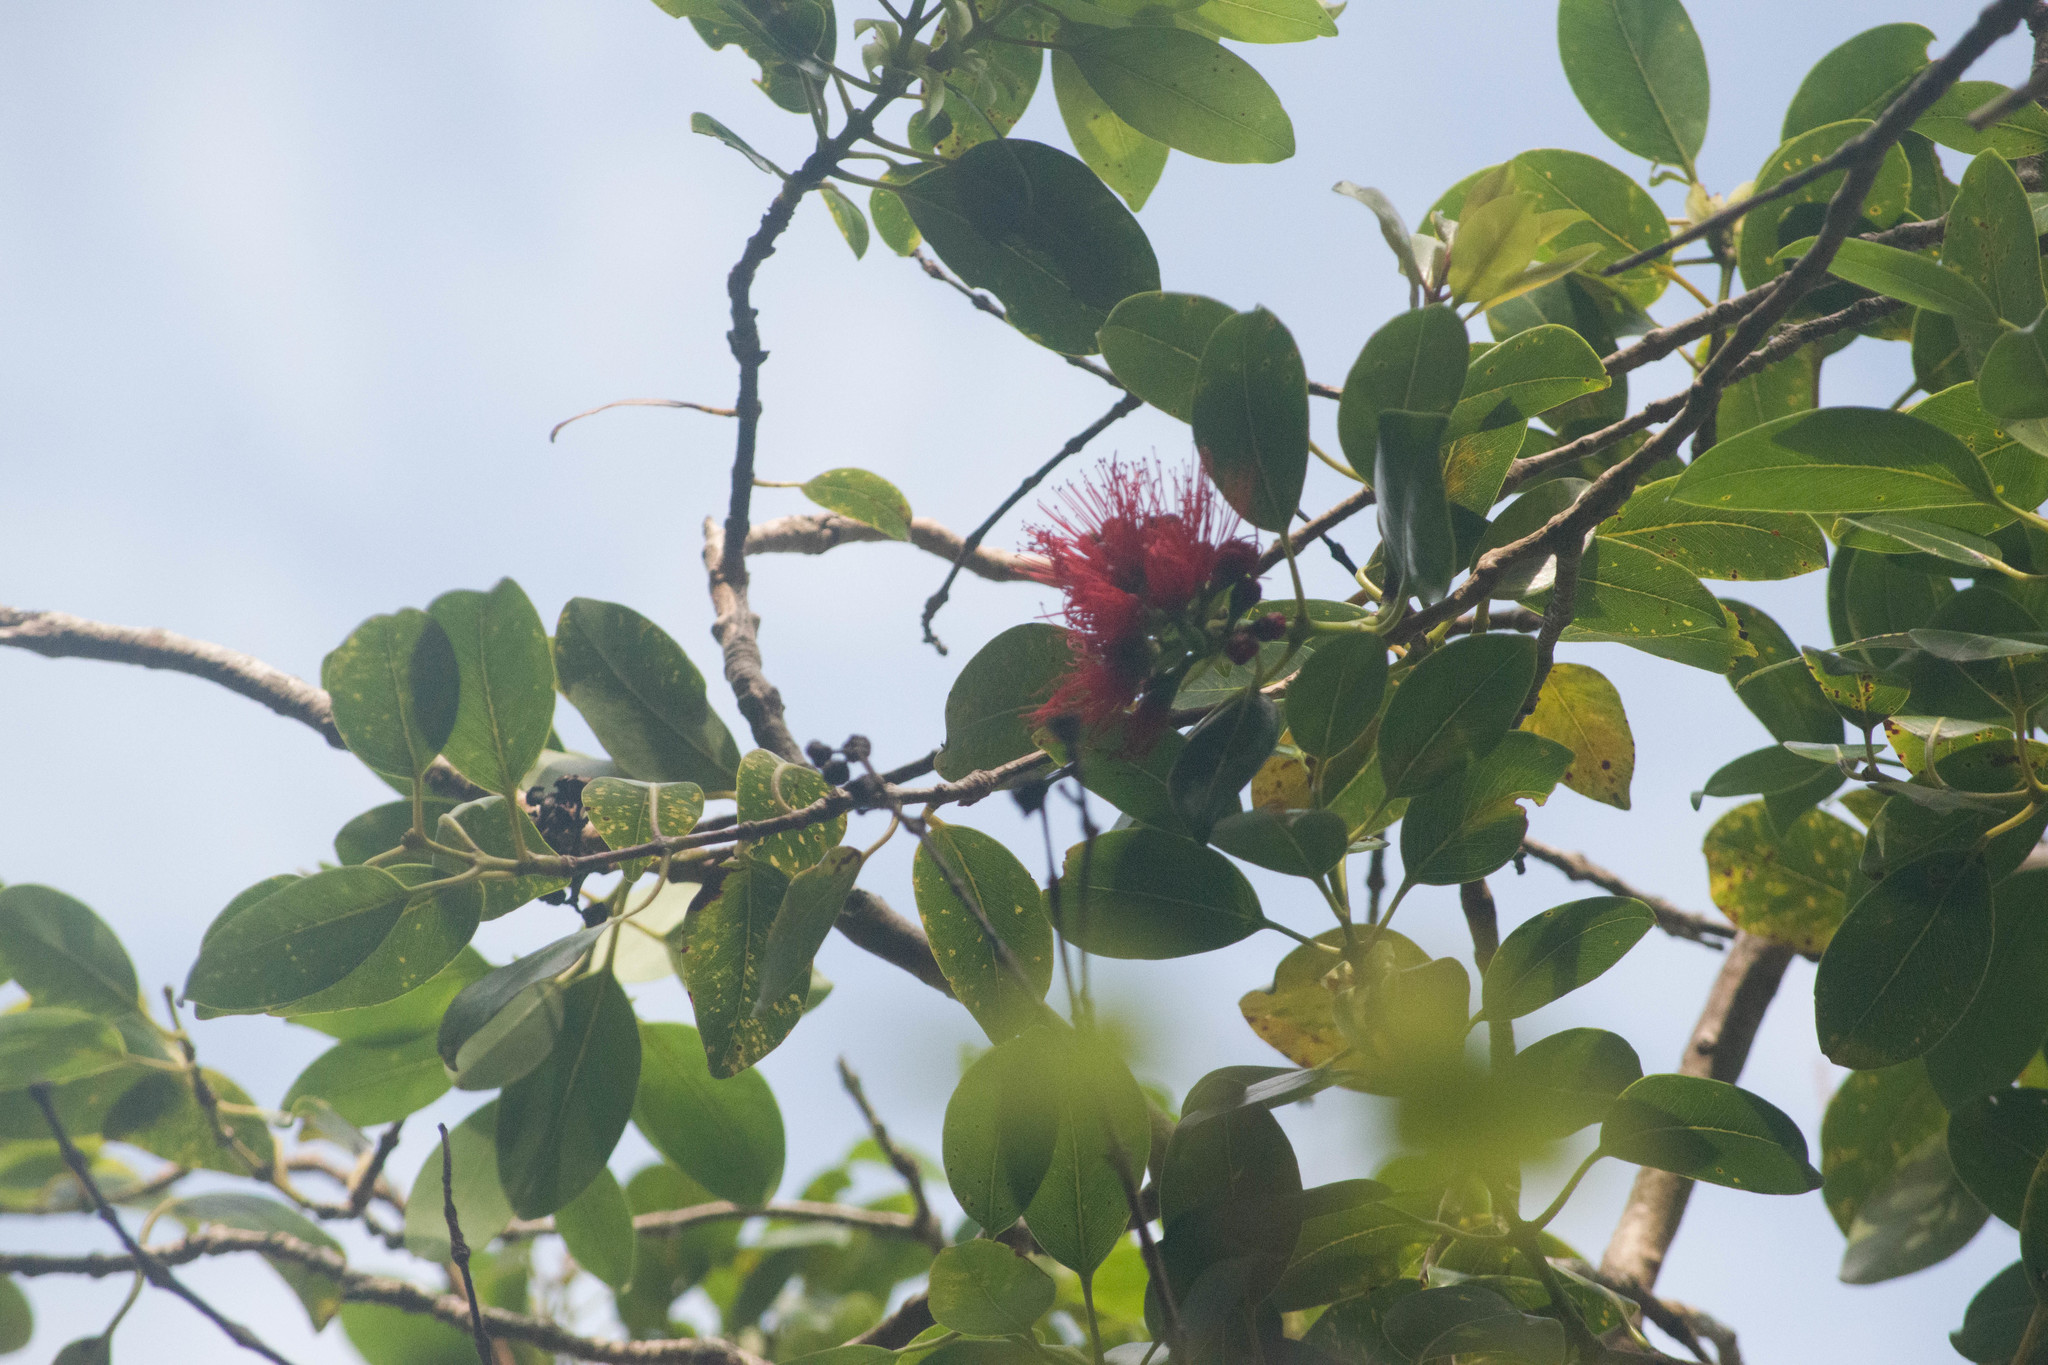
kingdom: Plantae
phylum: Tracheophyta
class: Magnoliopsida
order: Myrtales
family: Myrtaceae
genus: Metrosideros
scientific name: Metrosideros macropus
